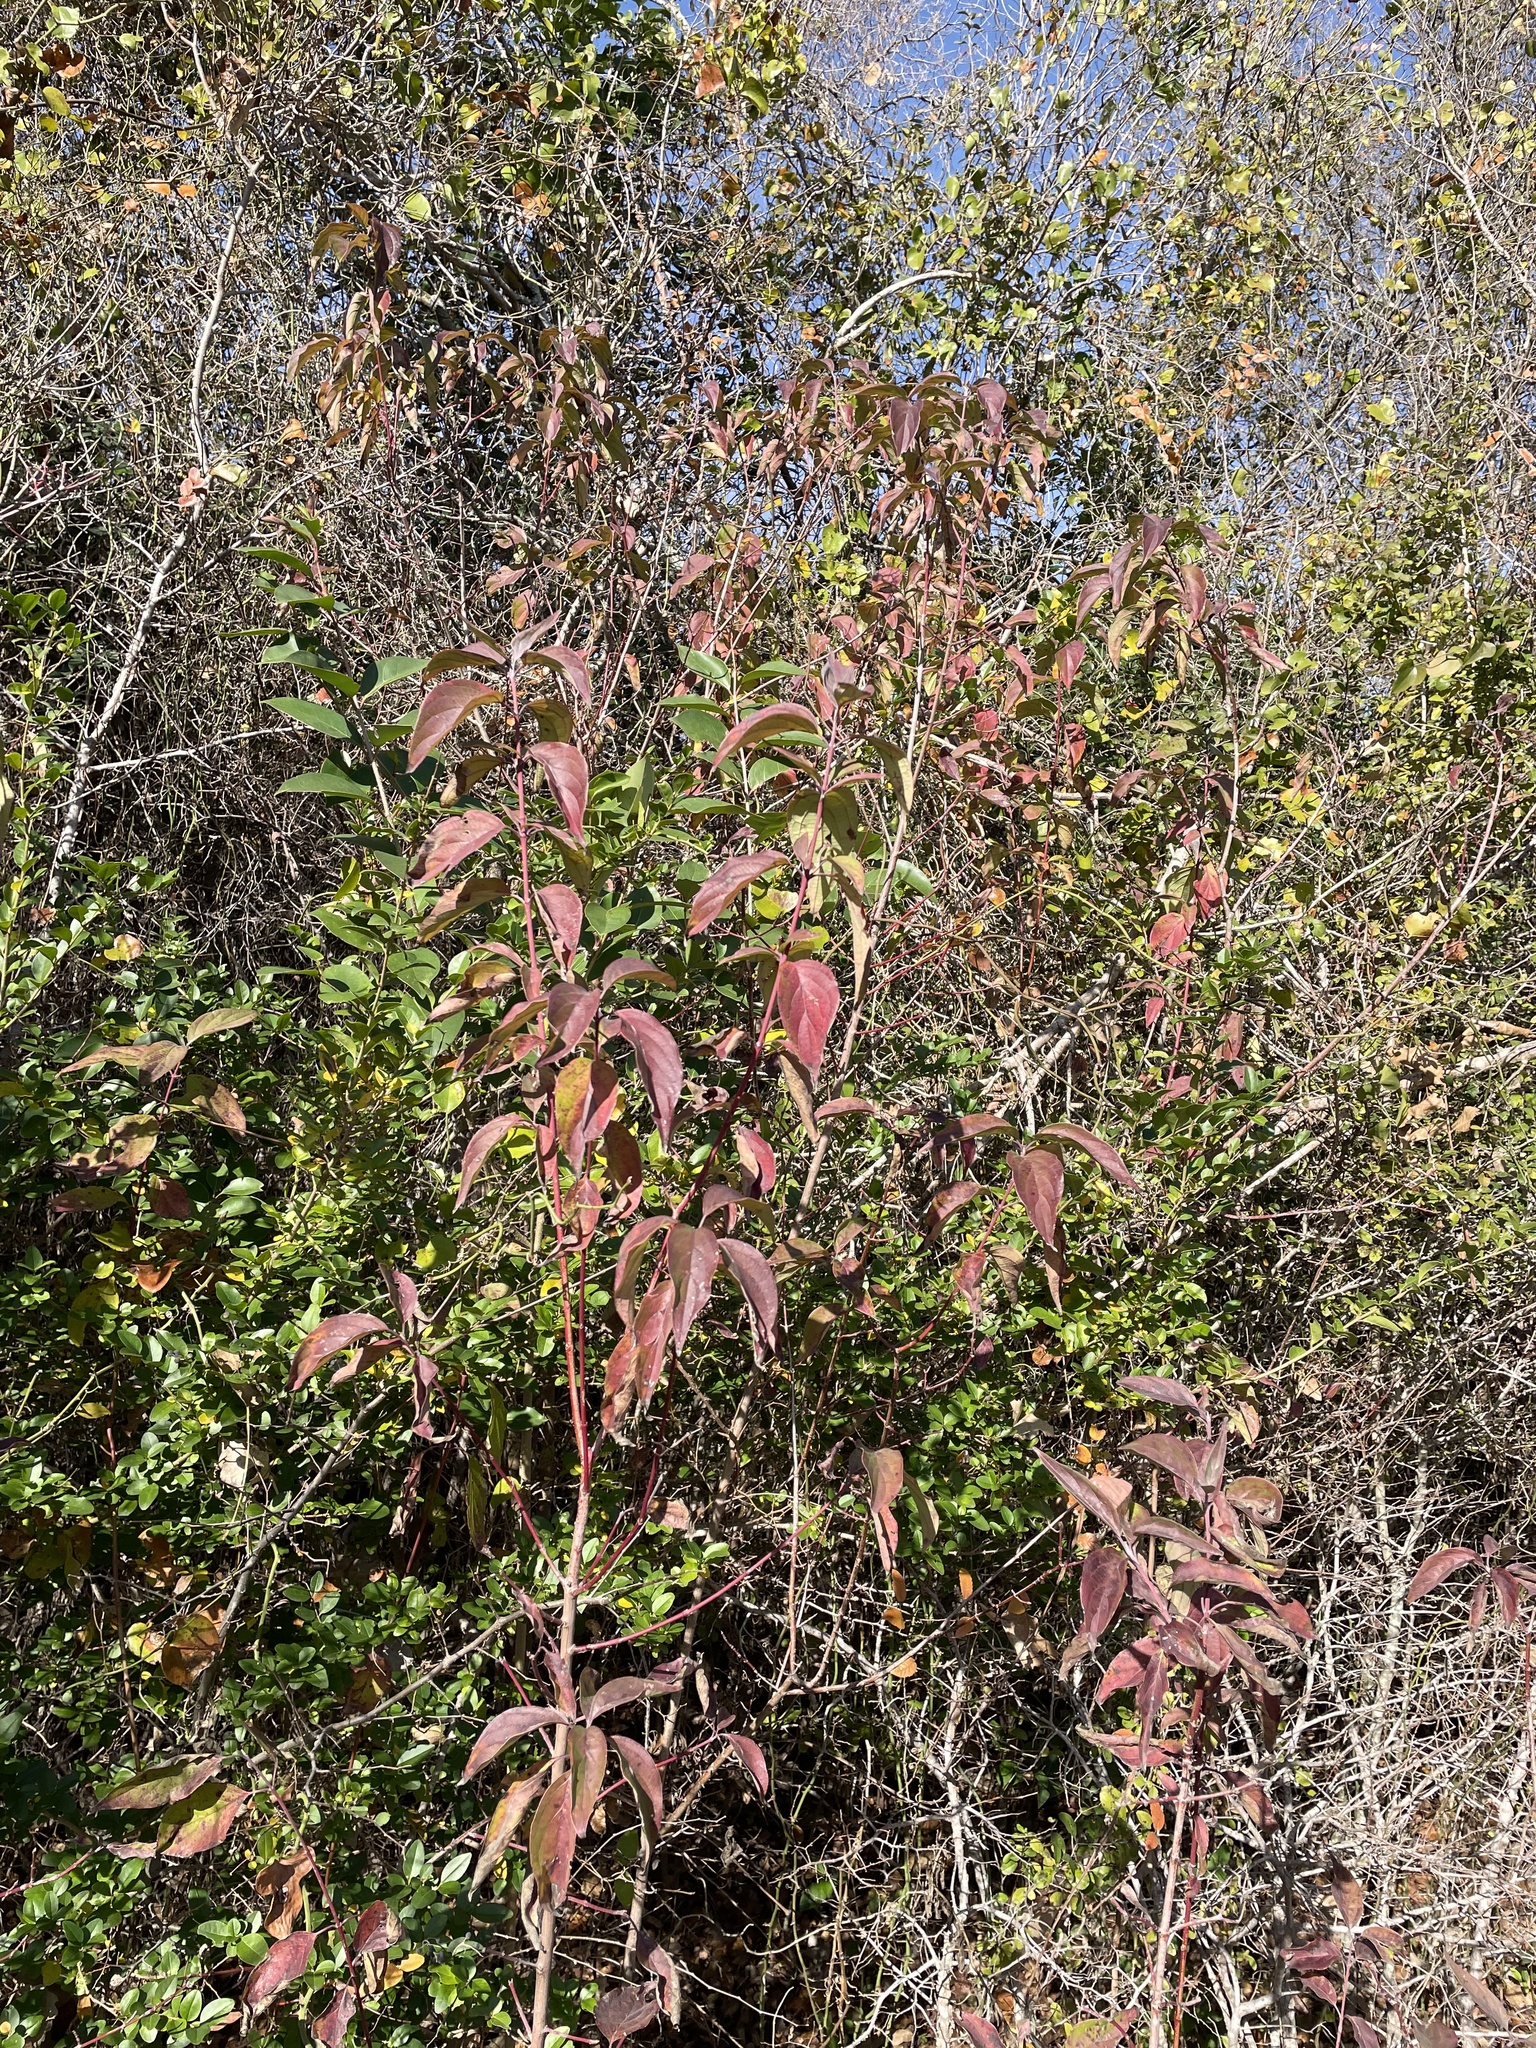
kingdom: Plantae
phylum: Tracheophyta
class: Magnoliopsida
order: Cornales
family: Cornaceae
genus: Cornus
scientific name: Cornus drummondii
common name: Rough-leaf dogwood
